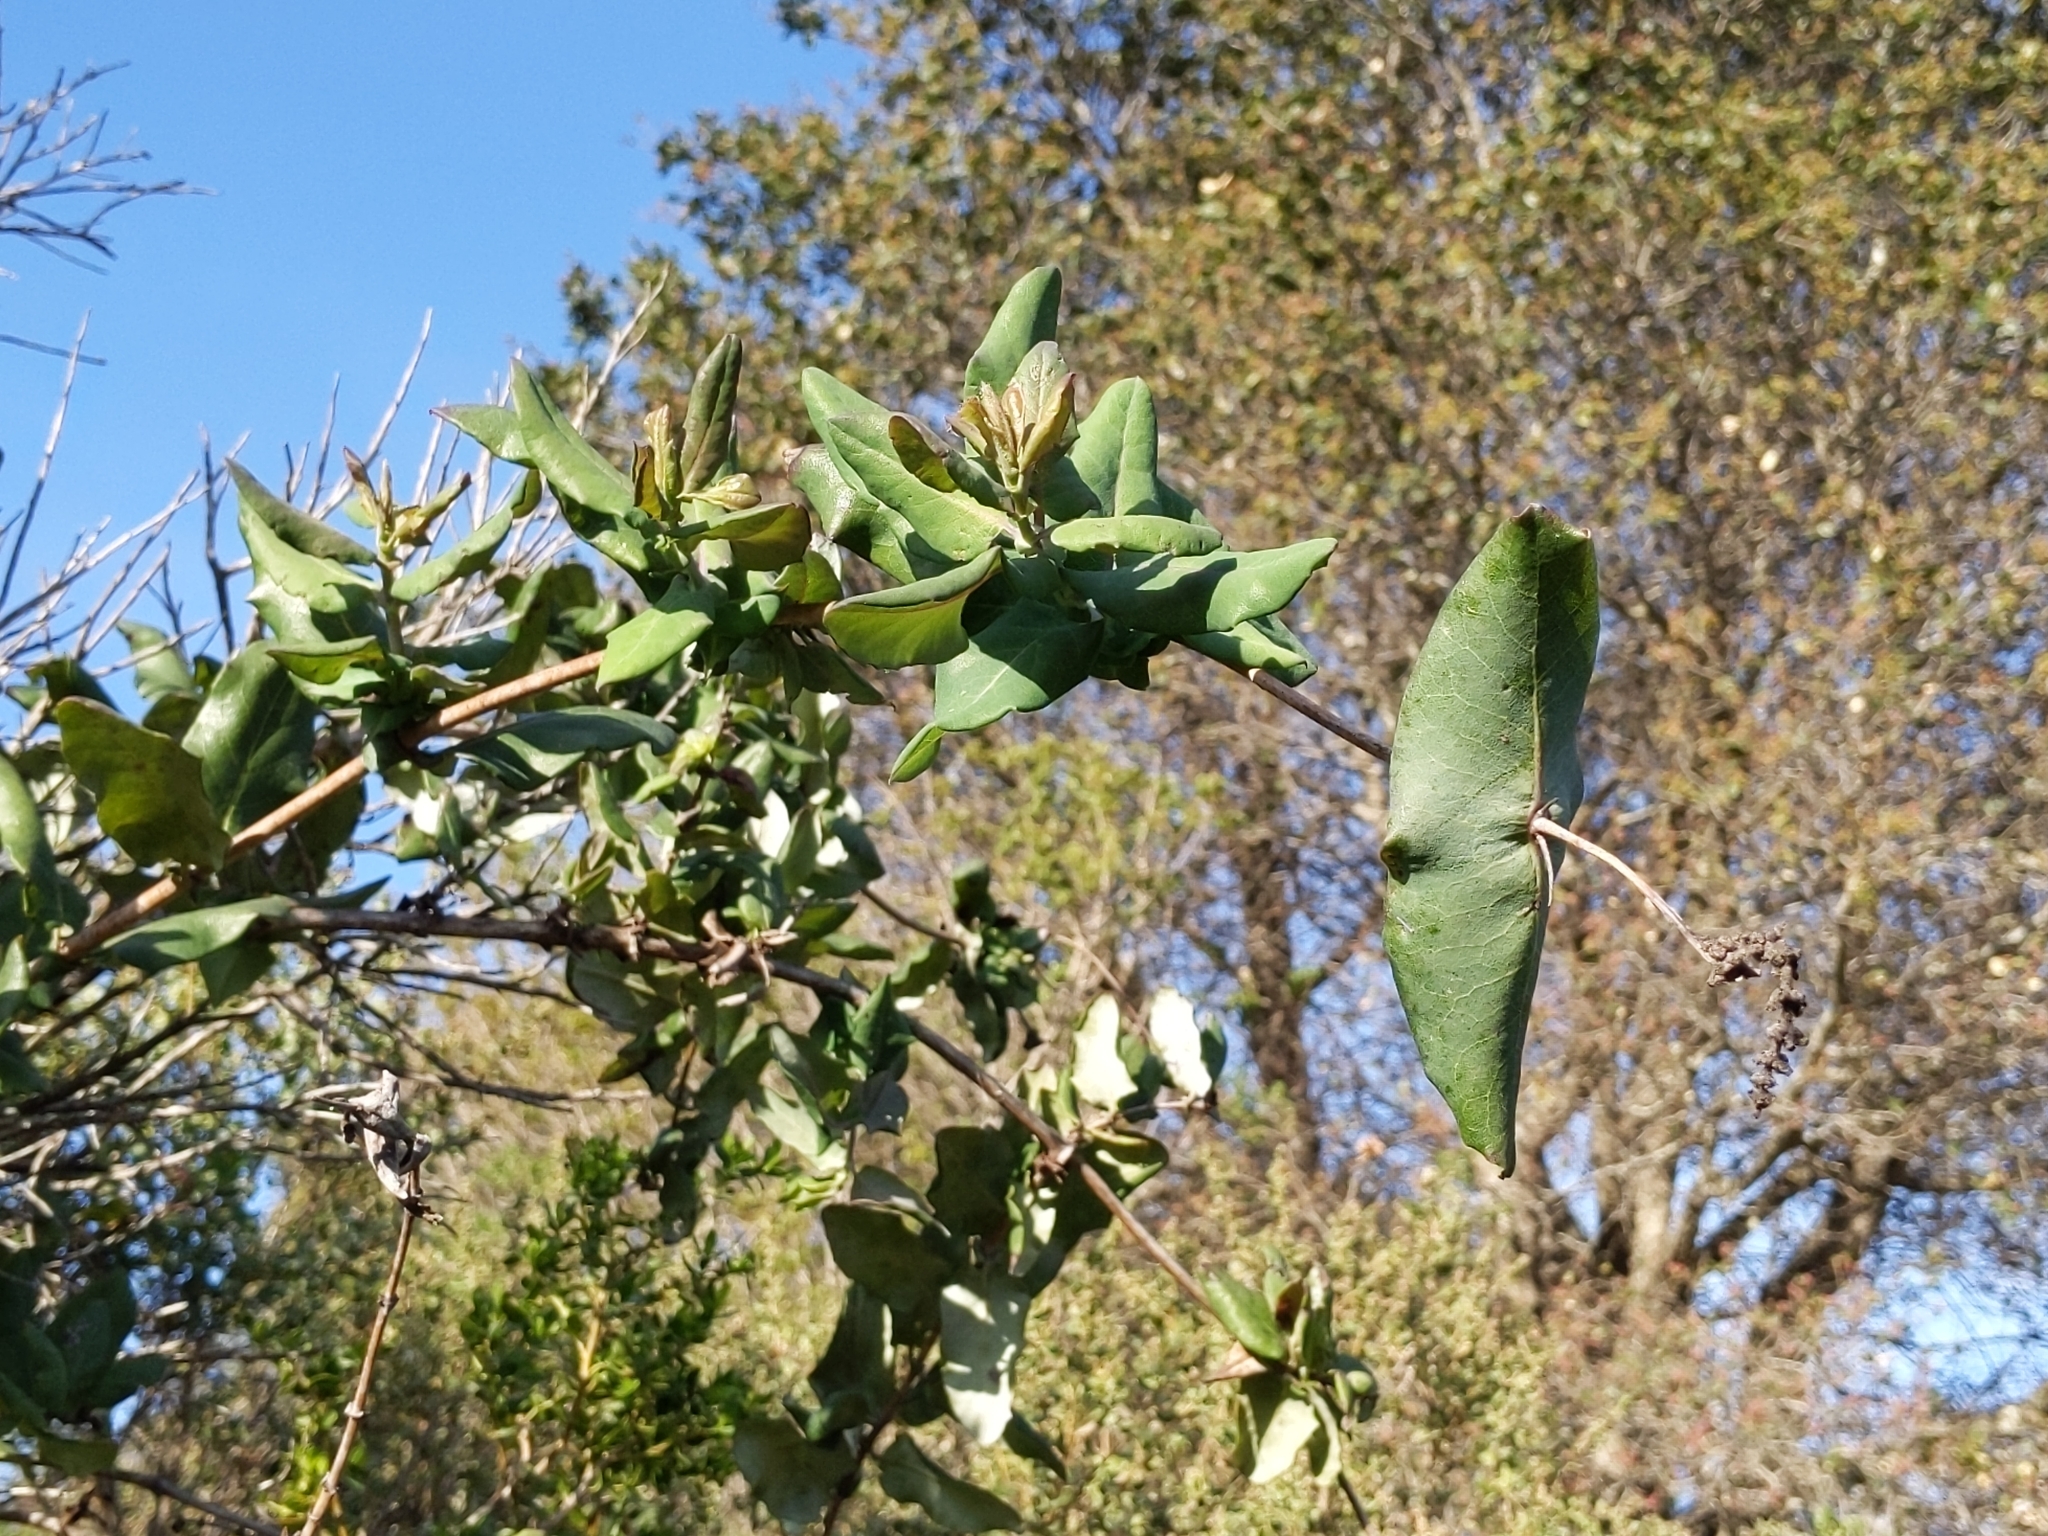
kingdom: Plantae
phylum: Tracheophyta
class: Magnoliopsida
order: Dipsacales
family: Caprifoliaceae
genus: Lonicera
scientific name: Lonicera hispidula
